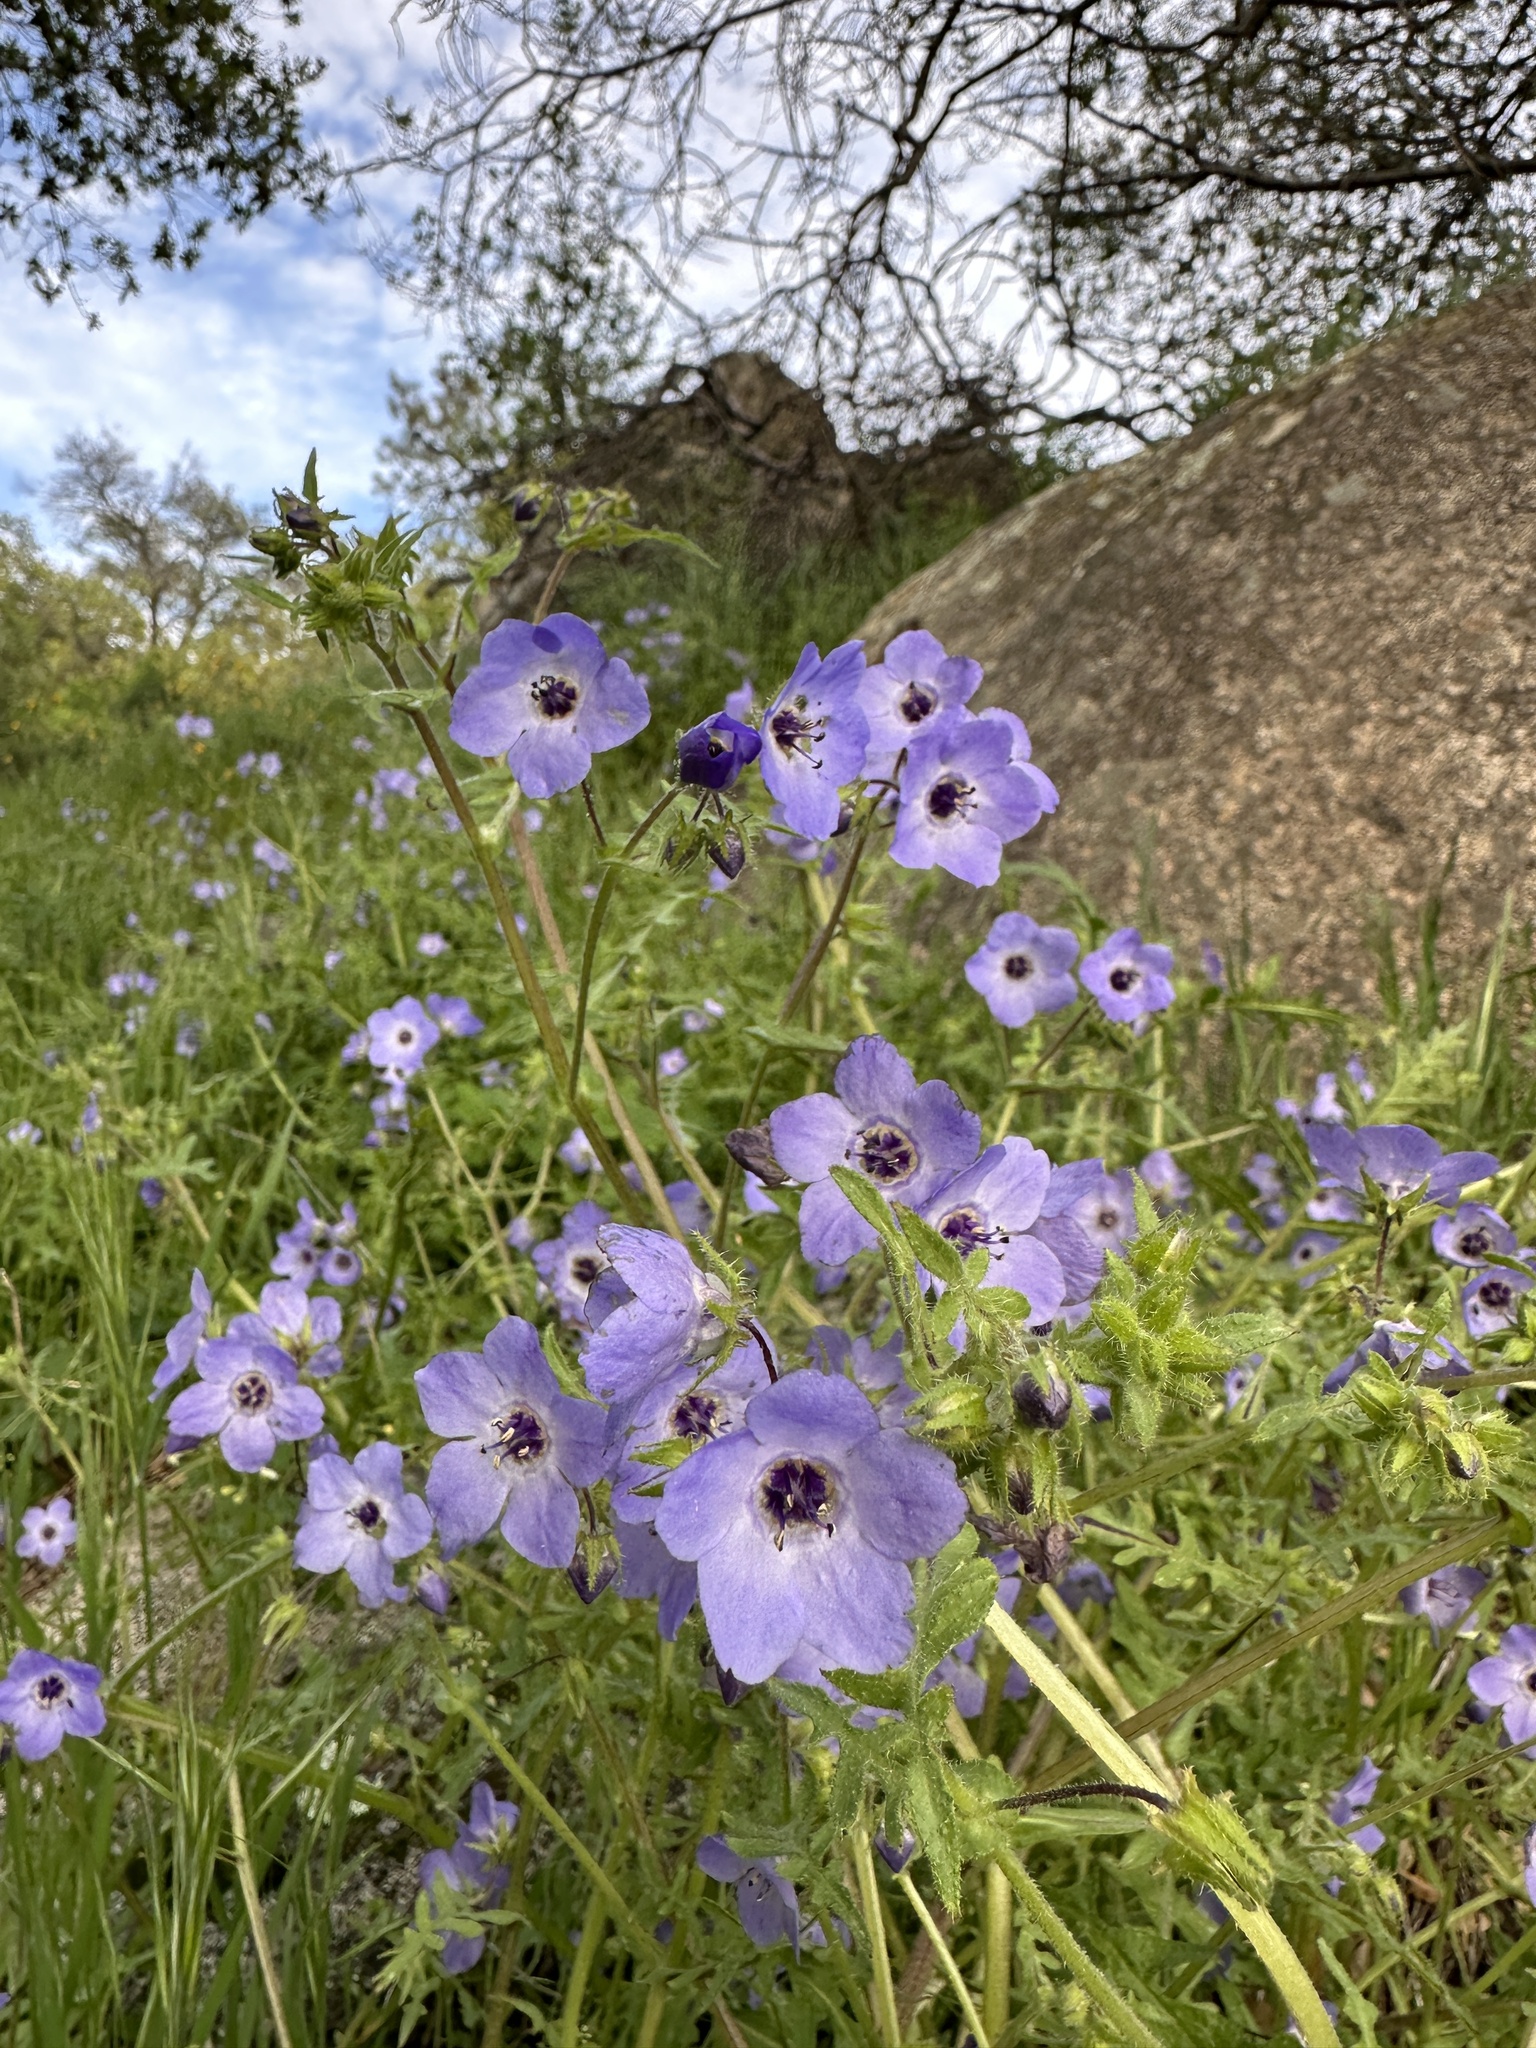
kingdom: Plantae
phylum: Tracheophyta
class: Magnoliopsida
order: Boraginales
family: Hydrophyllaceae
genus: Pholistoma
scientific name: Pholistoma auritum
